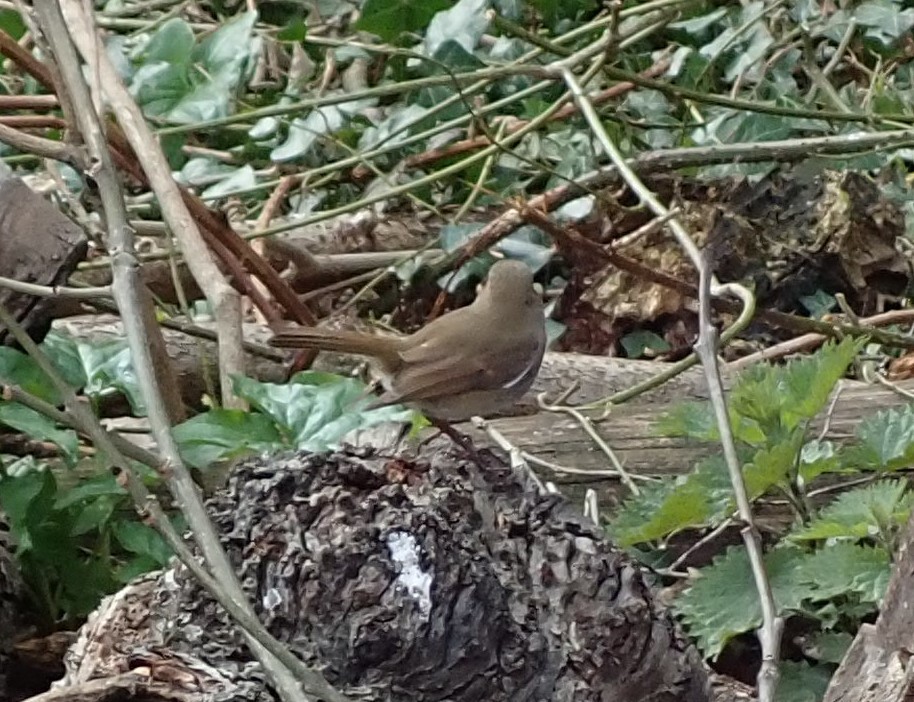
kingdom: Animalia
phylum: Chordata
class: Aves
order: Passeriformes
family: Muscicapidae
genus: Erithacus
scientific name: Erithacus rubecula
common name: European robin
